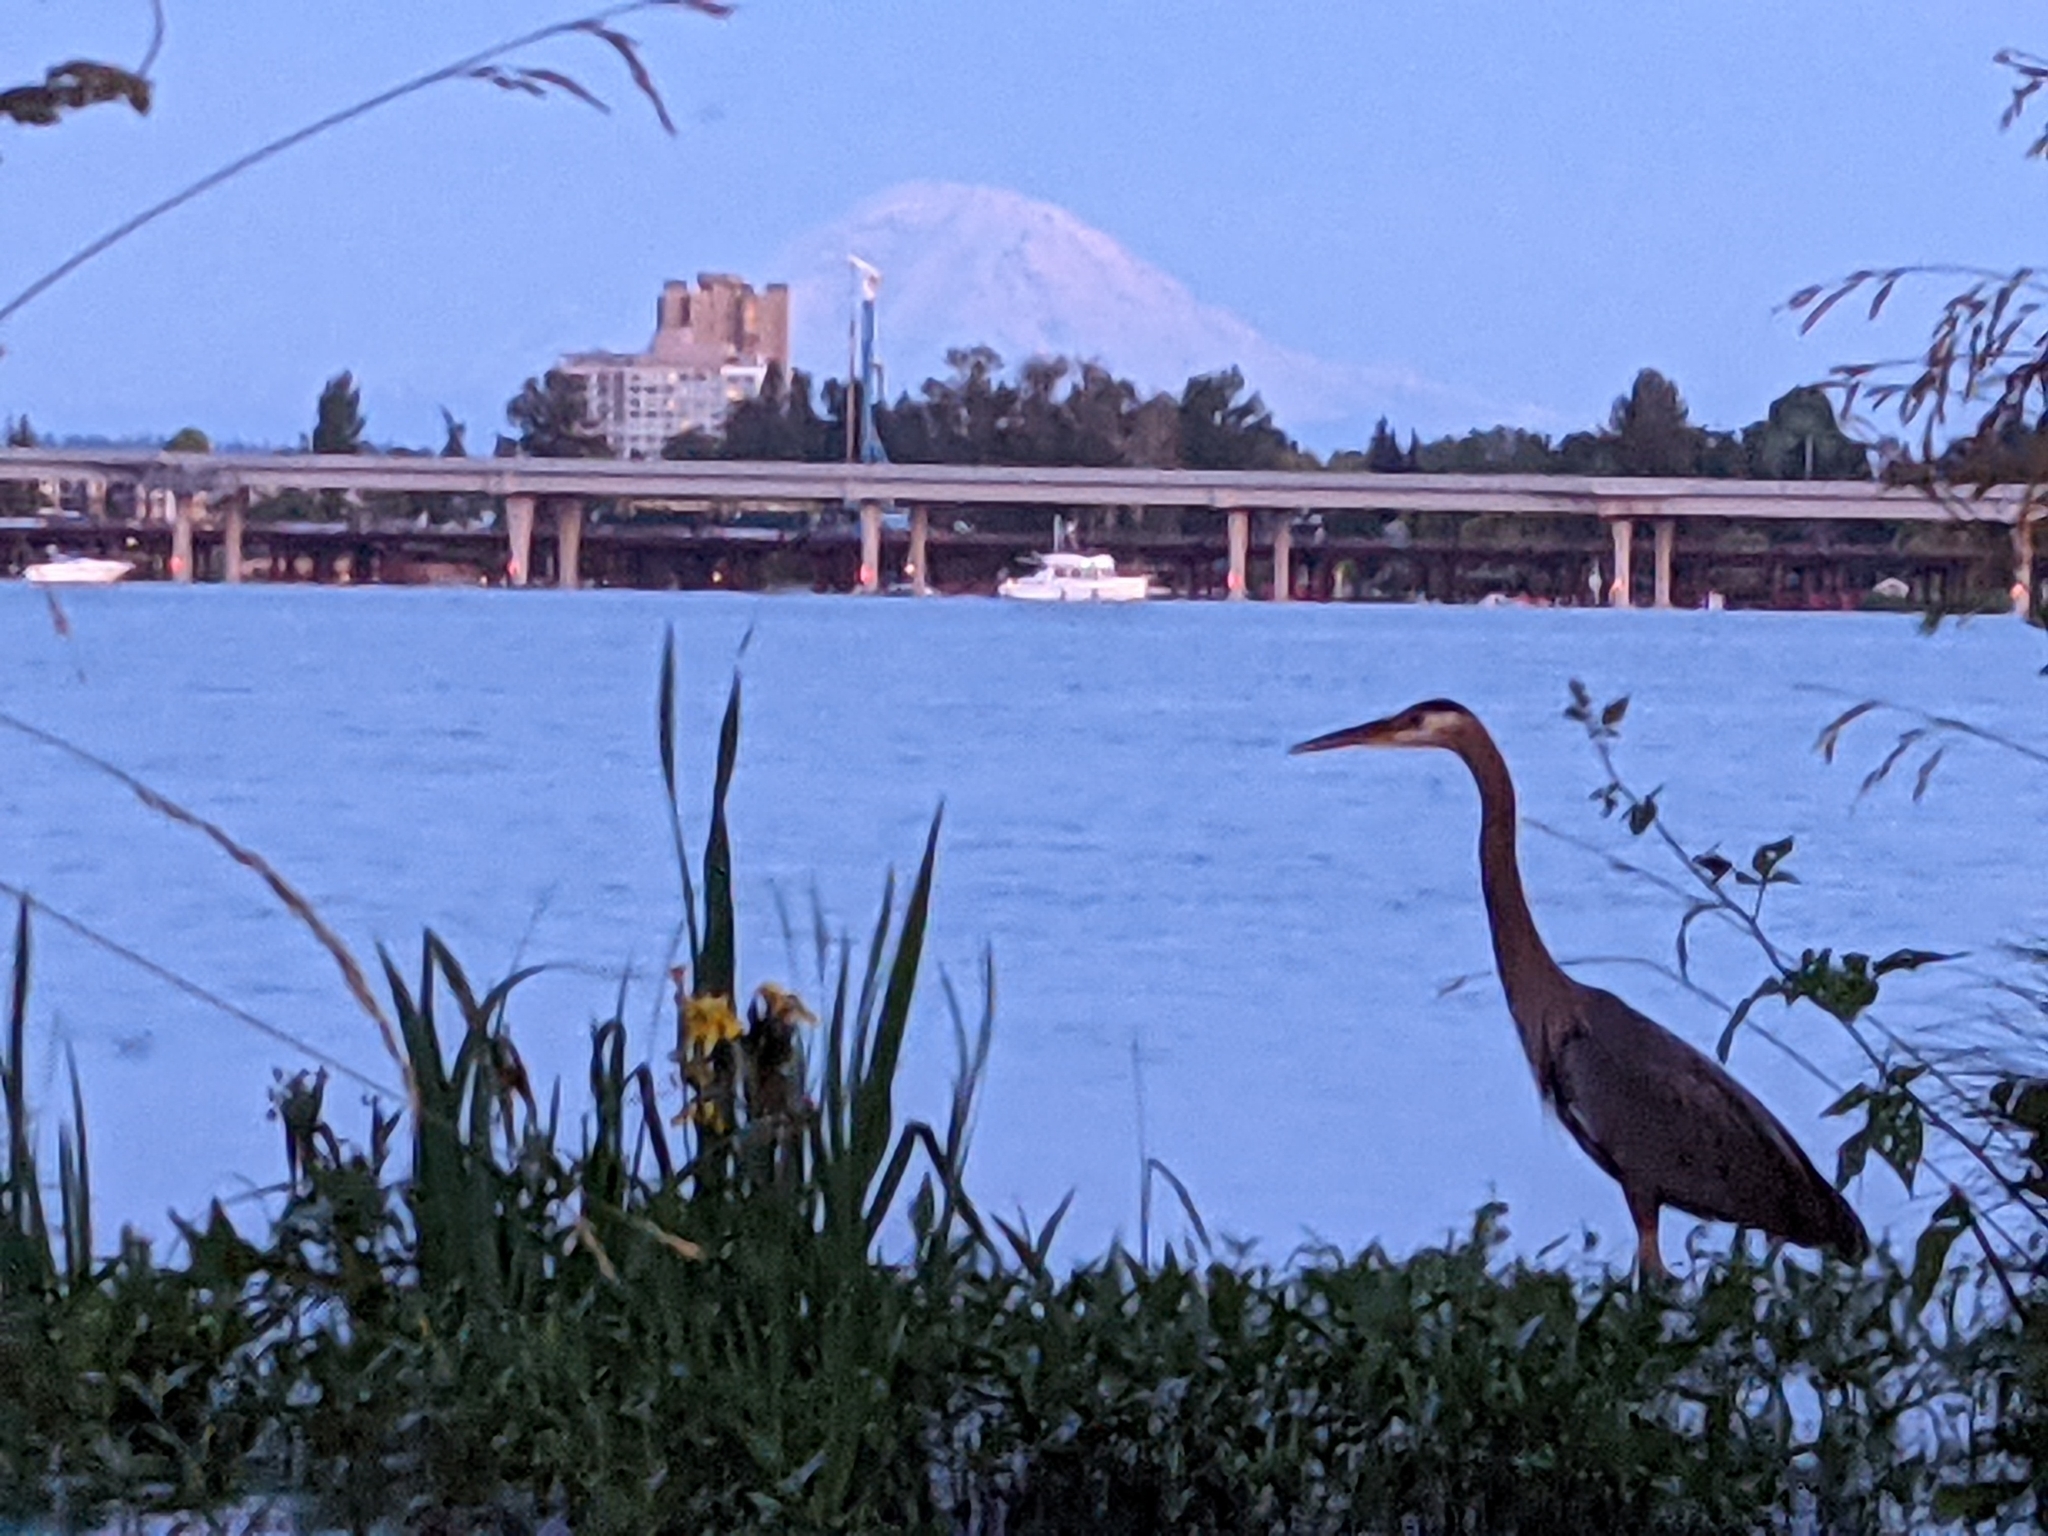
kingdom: Animalia
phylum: Chordata
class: Aves
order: Pelecaniformes
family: Ardeidae
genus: Ardea
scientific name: Ardea herodias
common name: Great blue heron
